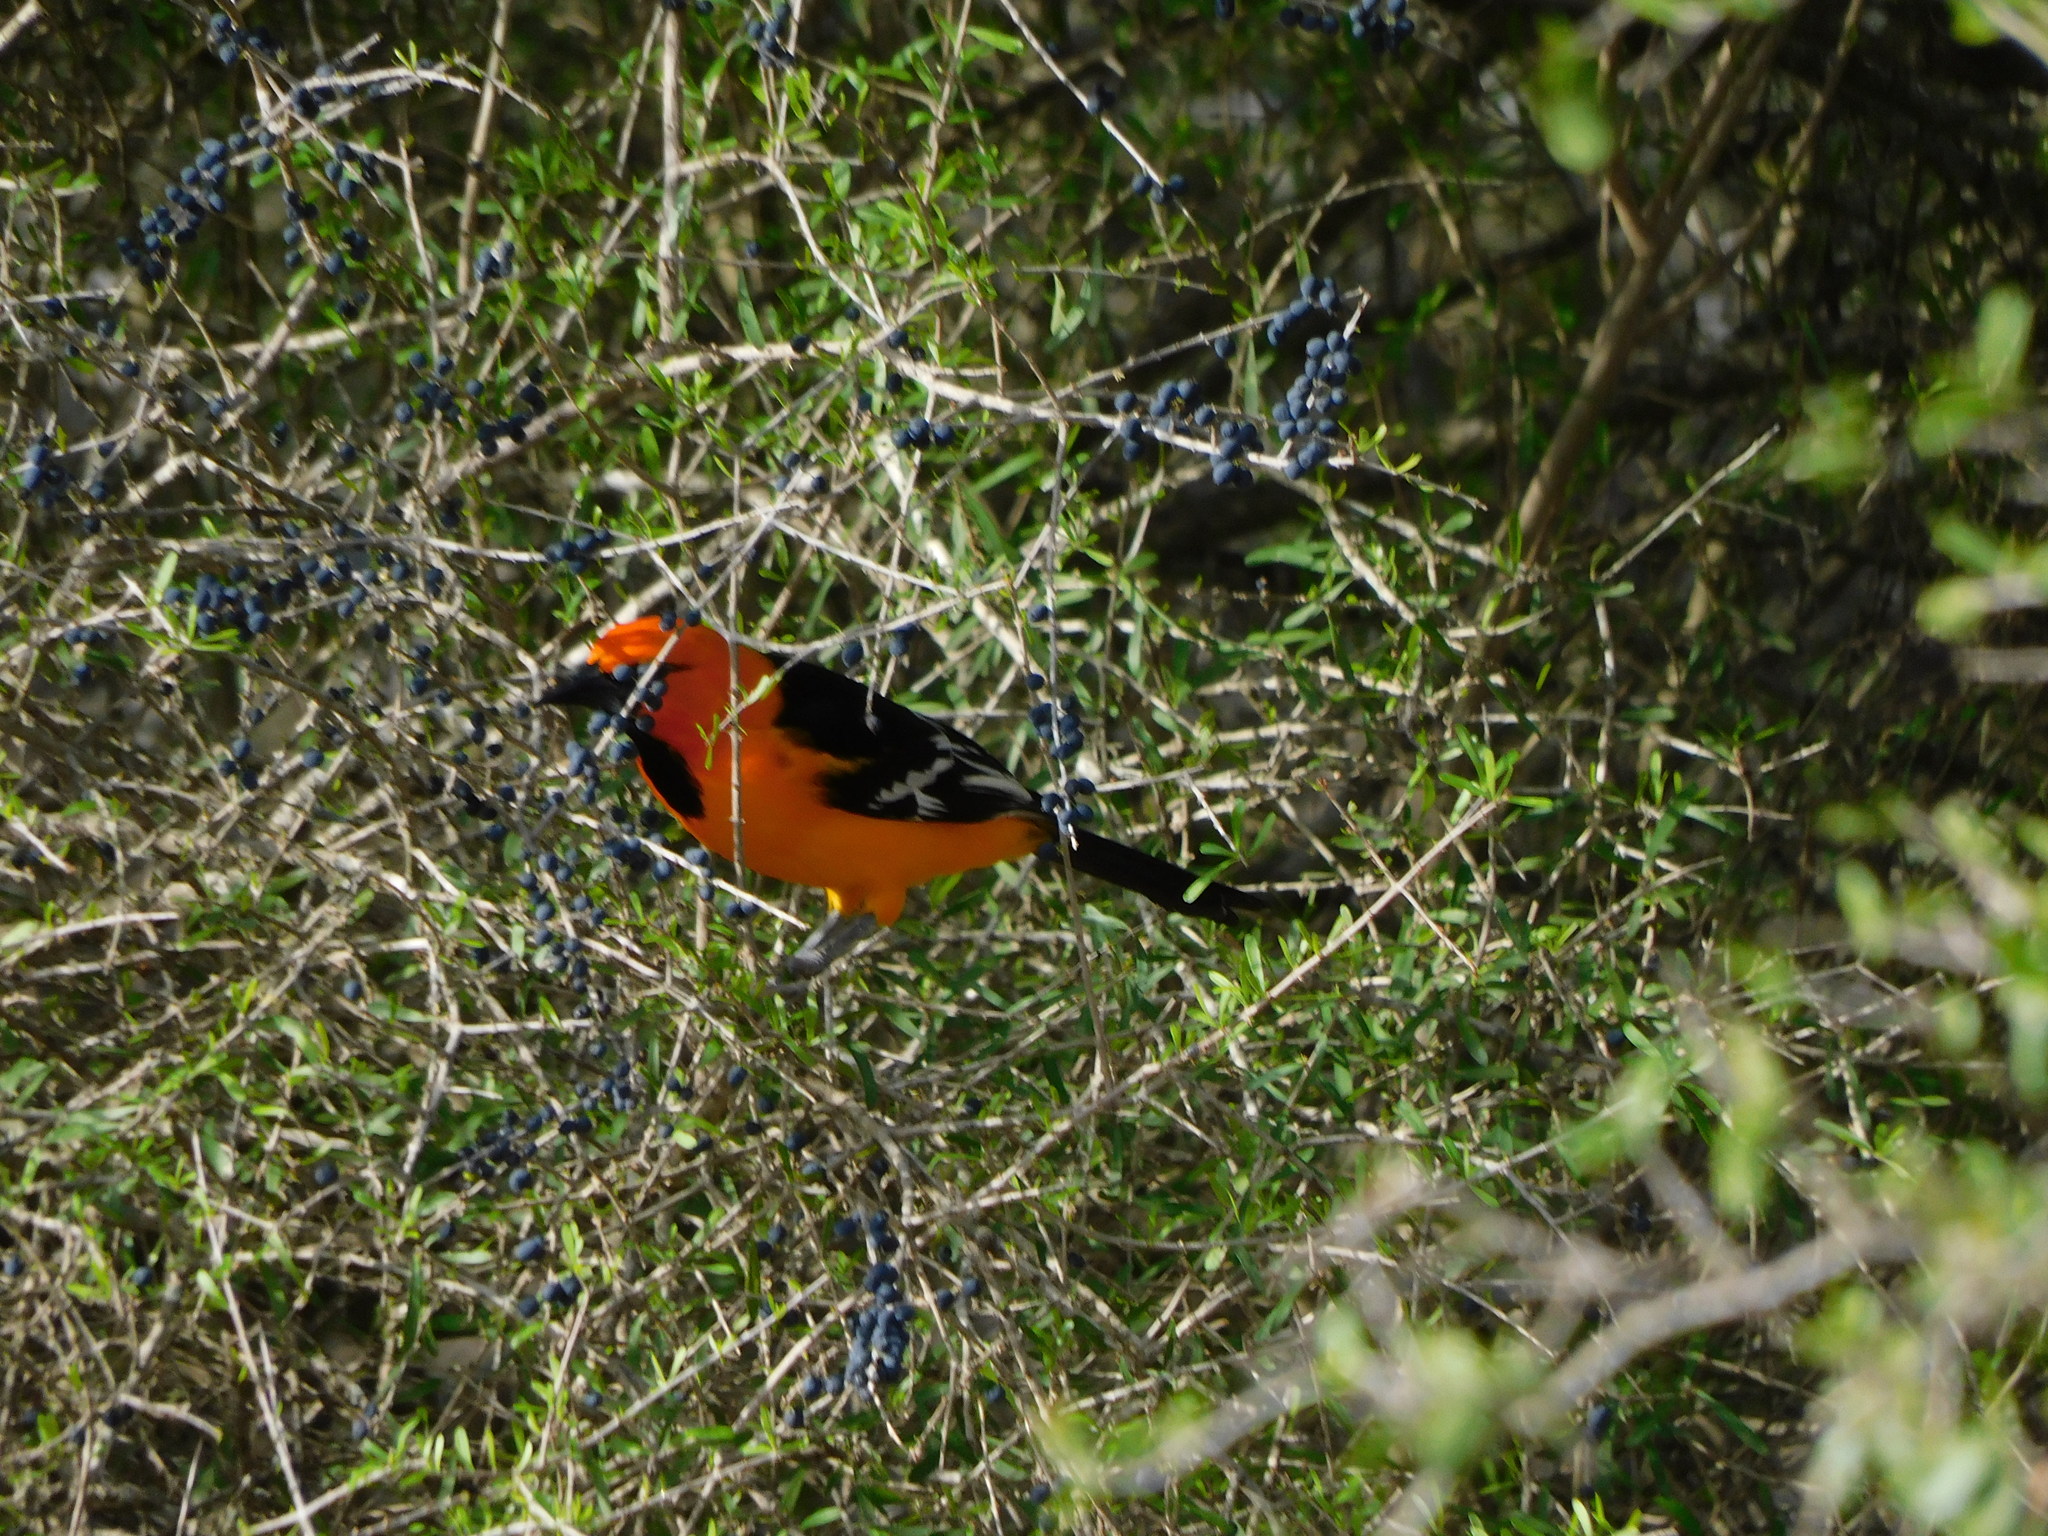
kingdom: Animalia
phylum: Chordata
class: Aves
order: Passeriformes
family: Icteridae
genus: Icterus
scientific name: Icterus gularis
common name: Altamira oriole
